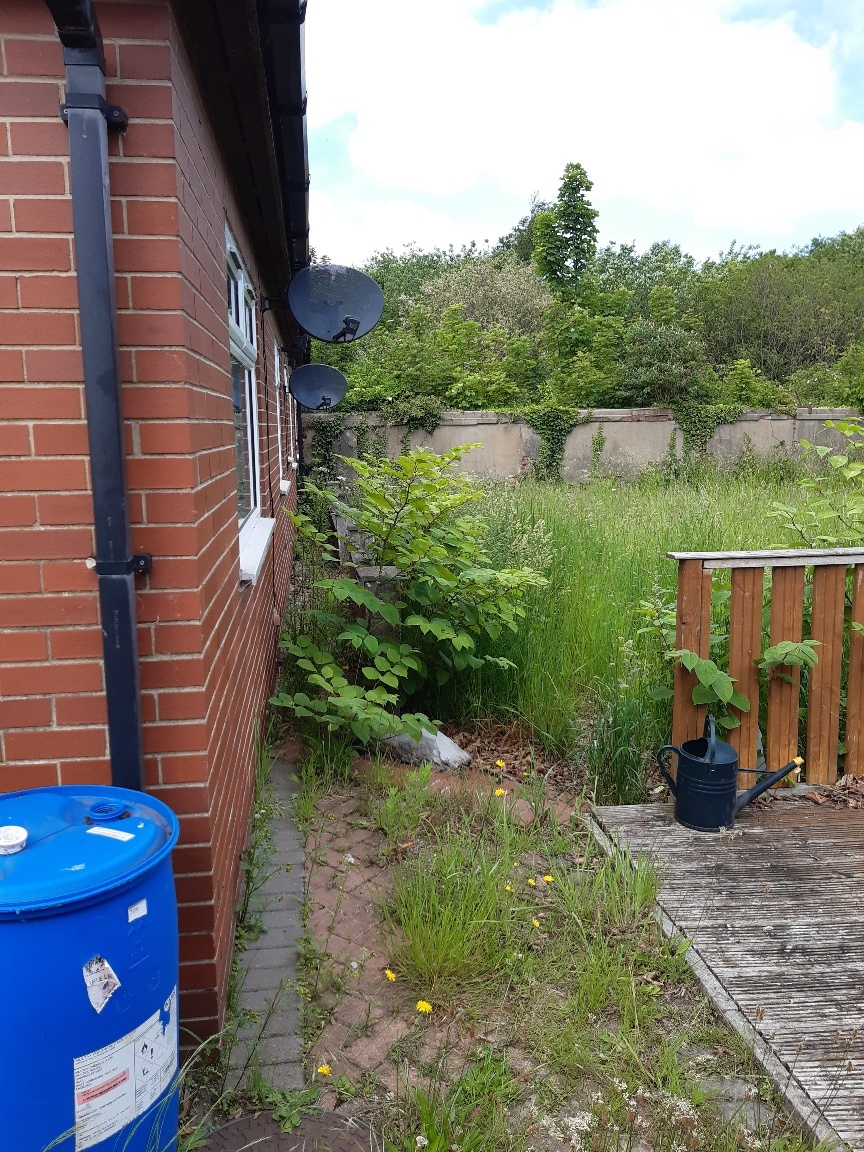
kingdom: Plantae
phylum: Tracheophyta
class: Magnoliopsida
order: Caryophyllales
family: Polygonaceae
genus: Reynoutria
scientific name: Reynoutria japonica
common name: Japanese knotweed
